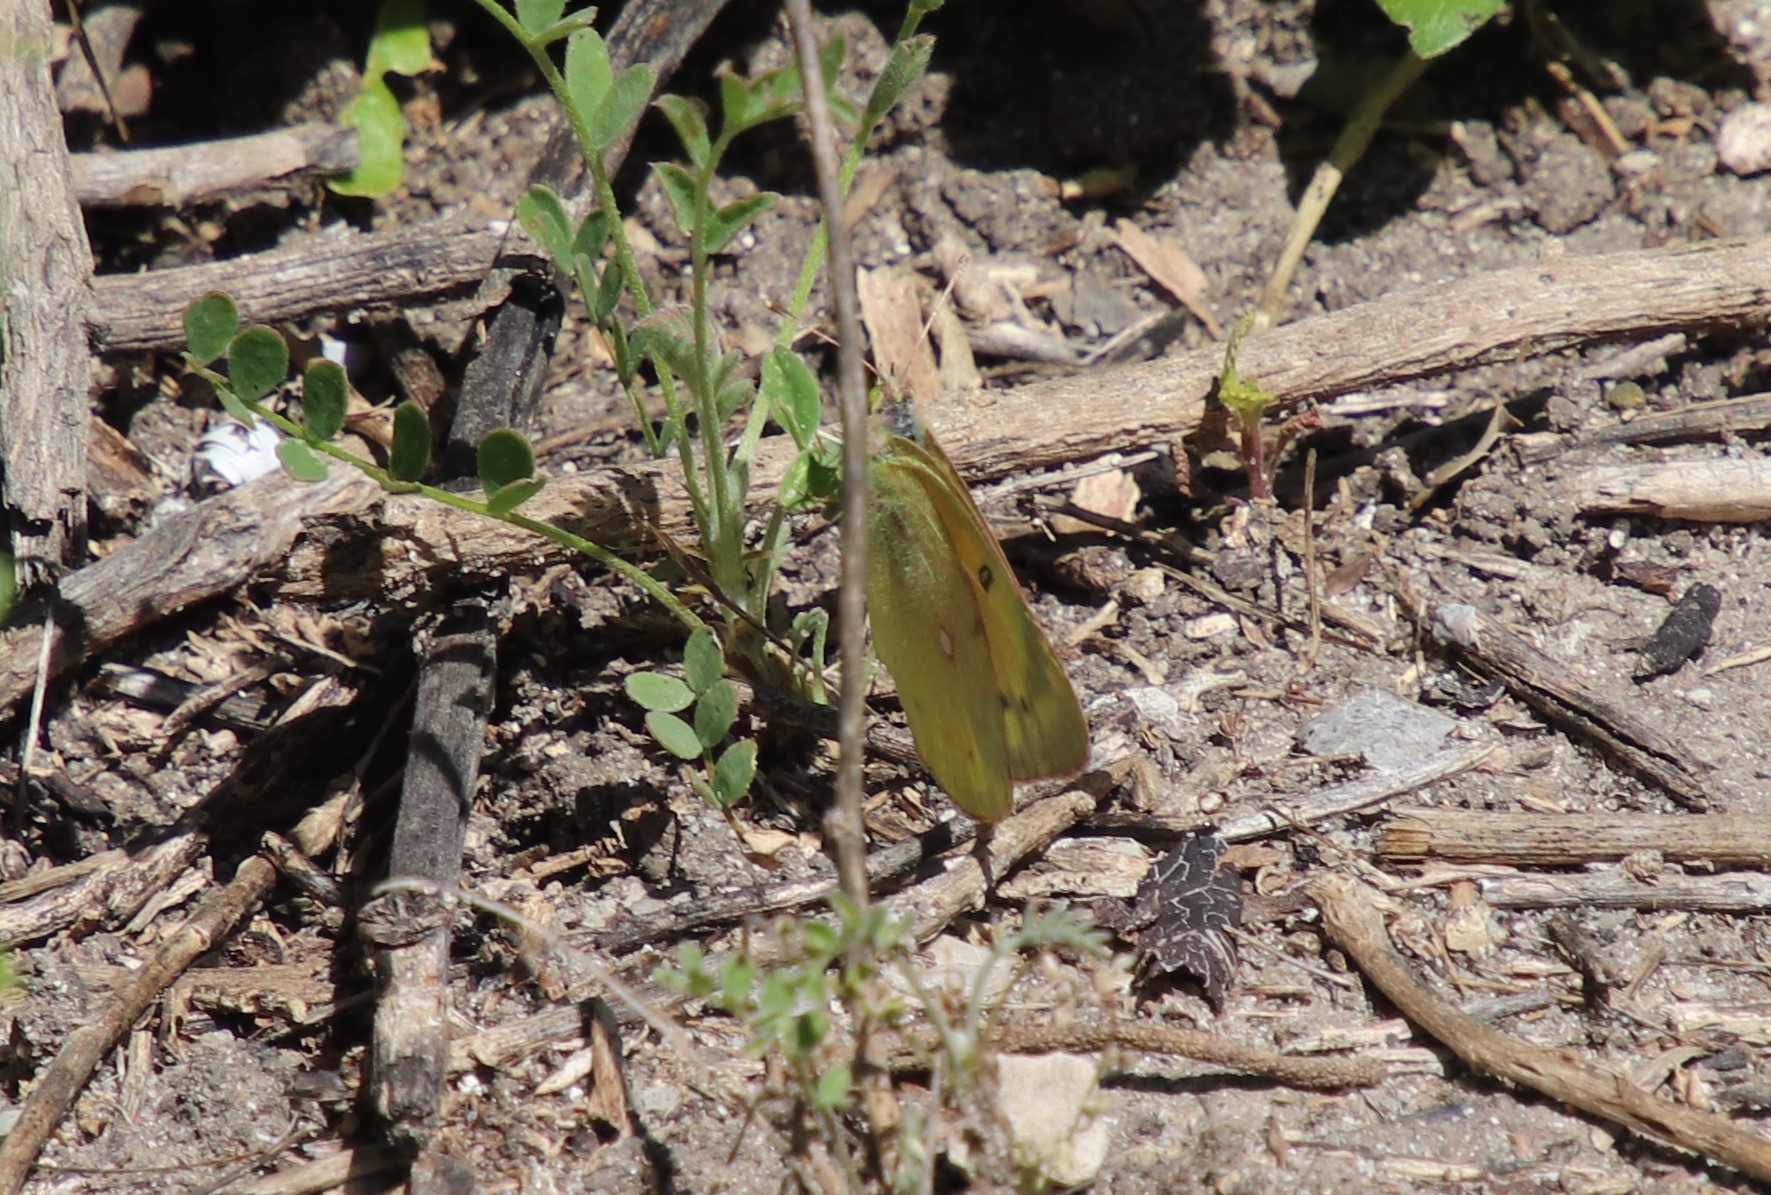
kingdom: Animalia
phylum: Arthropoda
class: Insecta
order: Lepidoptera
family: Pieridae
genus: Colias
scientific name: Colias eurytheme
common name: Alfalfa butterfly
